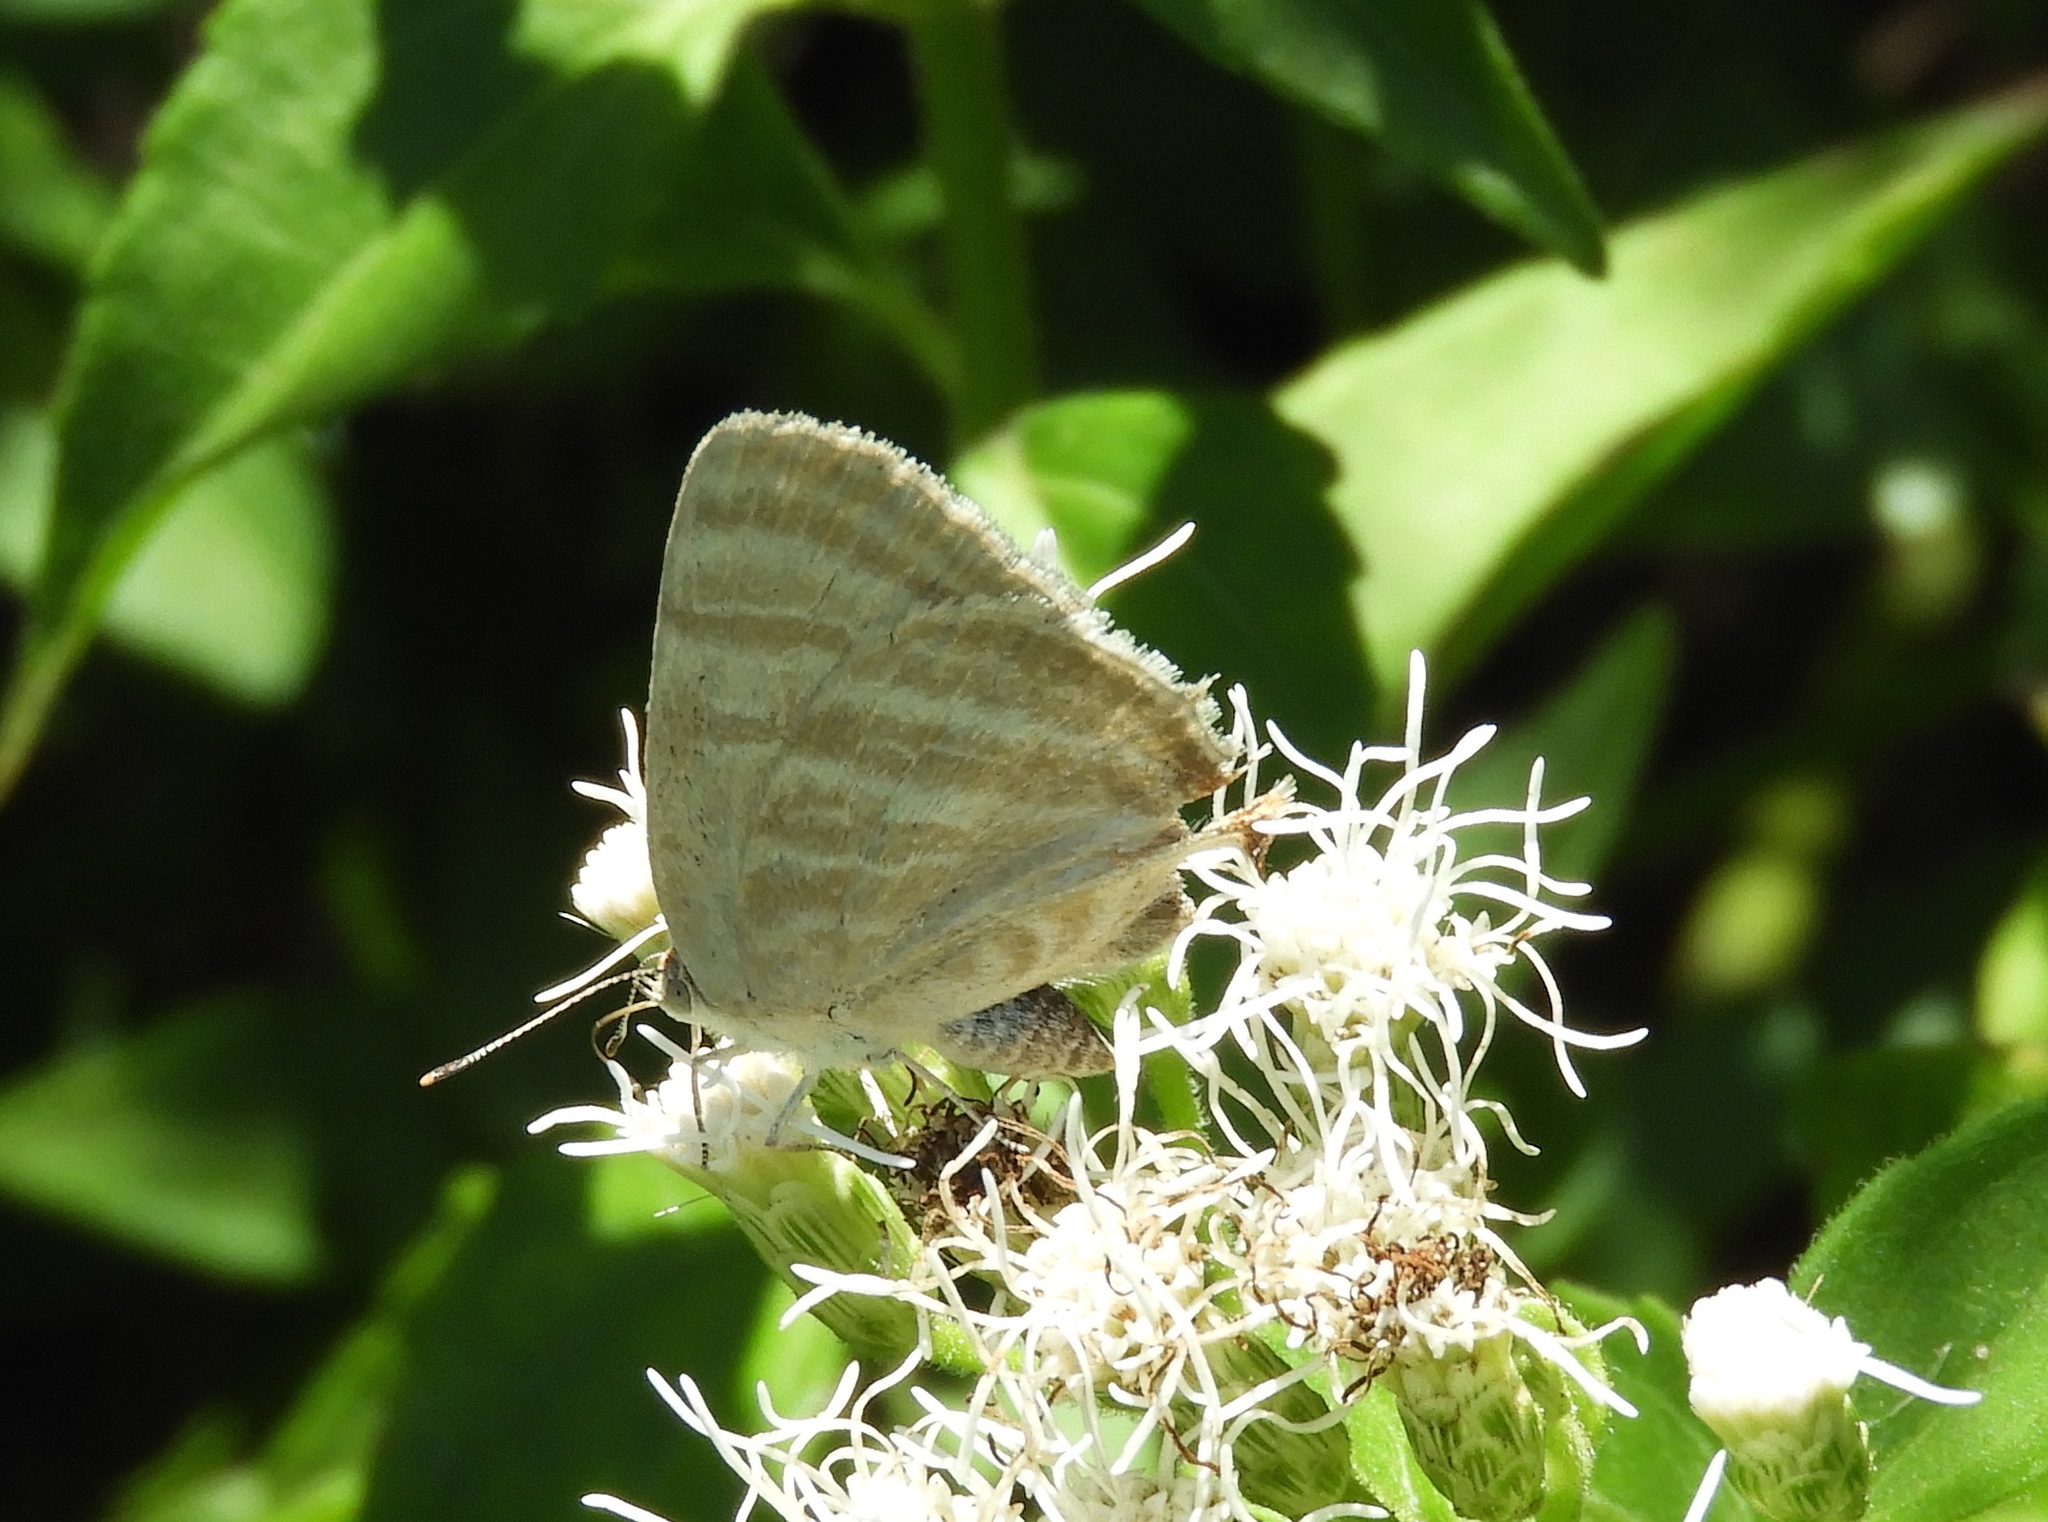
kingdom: Animalia
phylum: Arthropoda
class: Insecta
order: Lepidoptera
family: Lycaenidae
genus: Dolymorpha
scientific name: Dolymorpha jada
